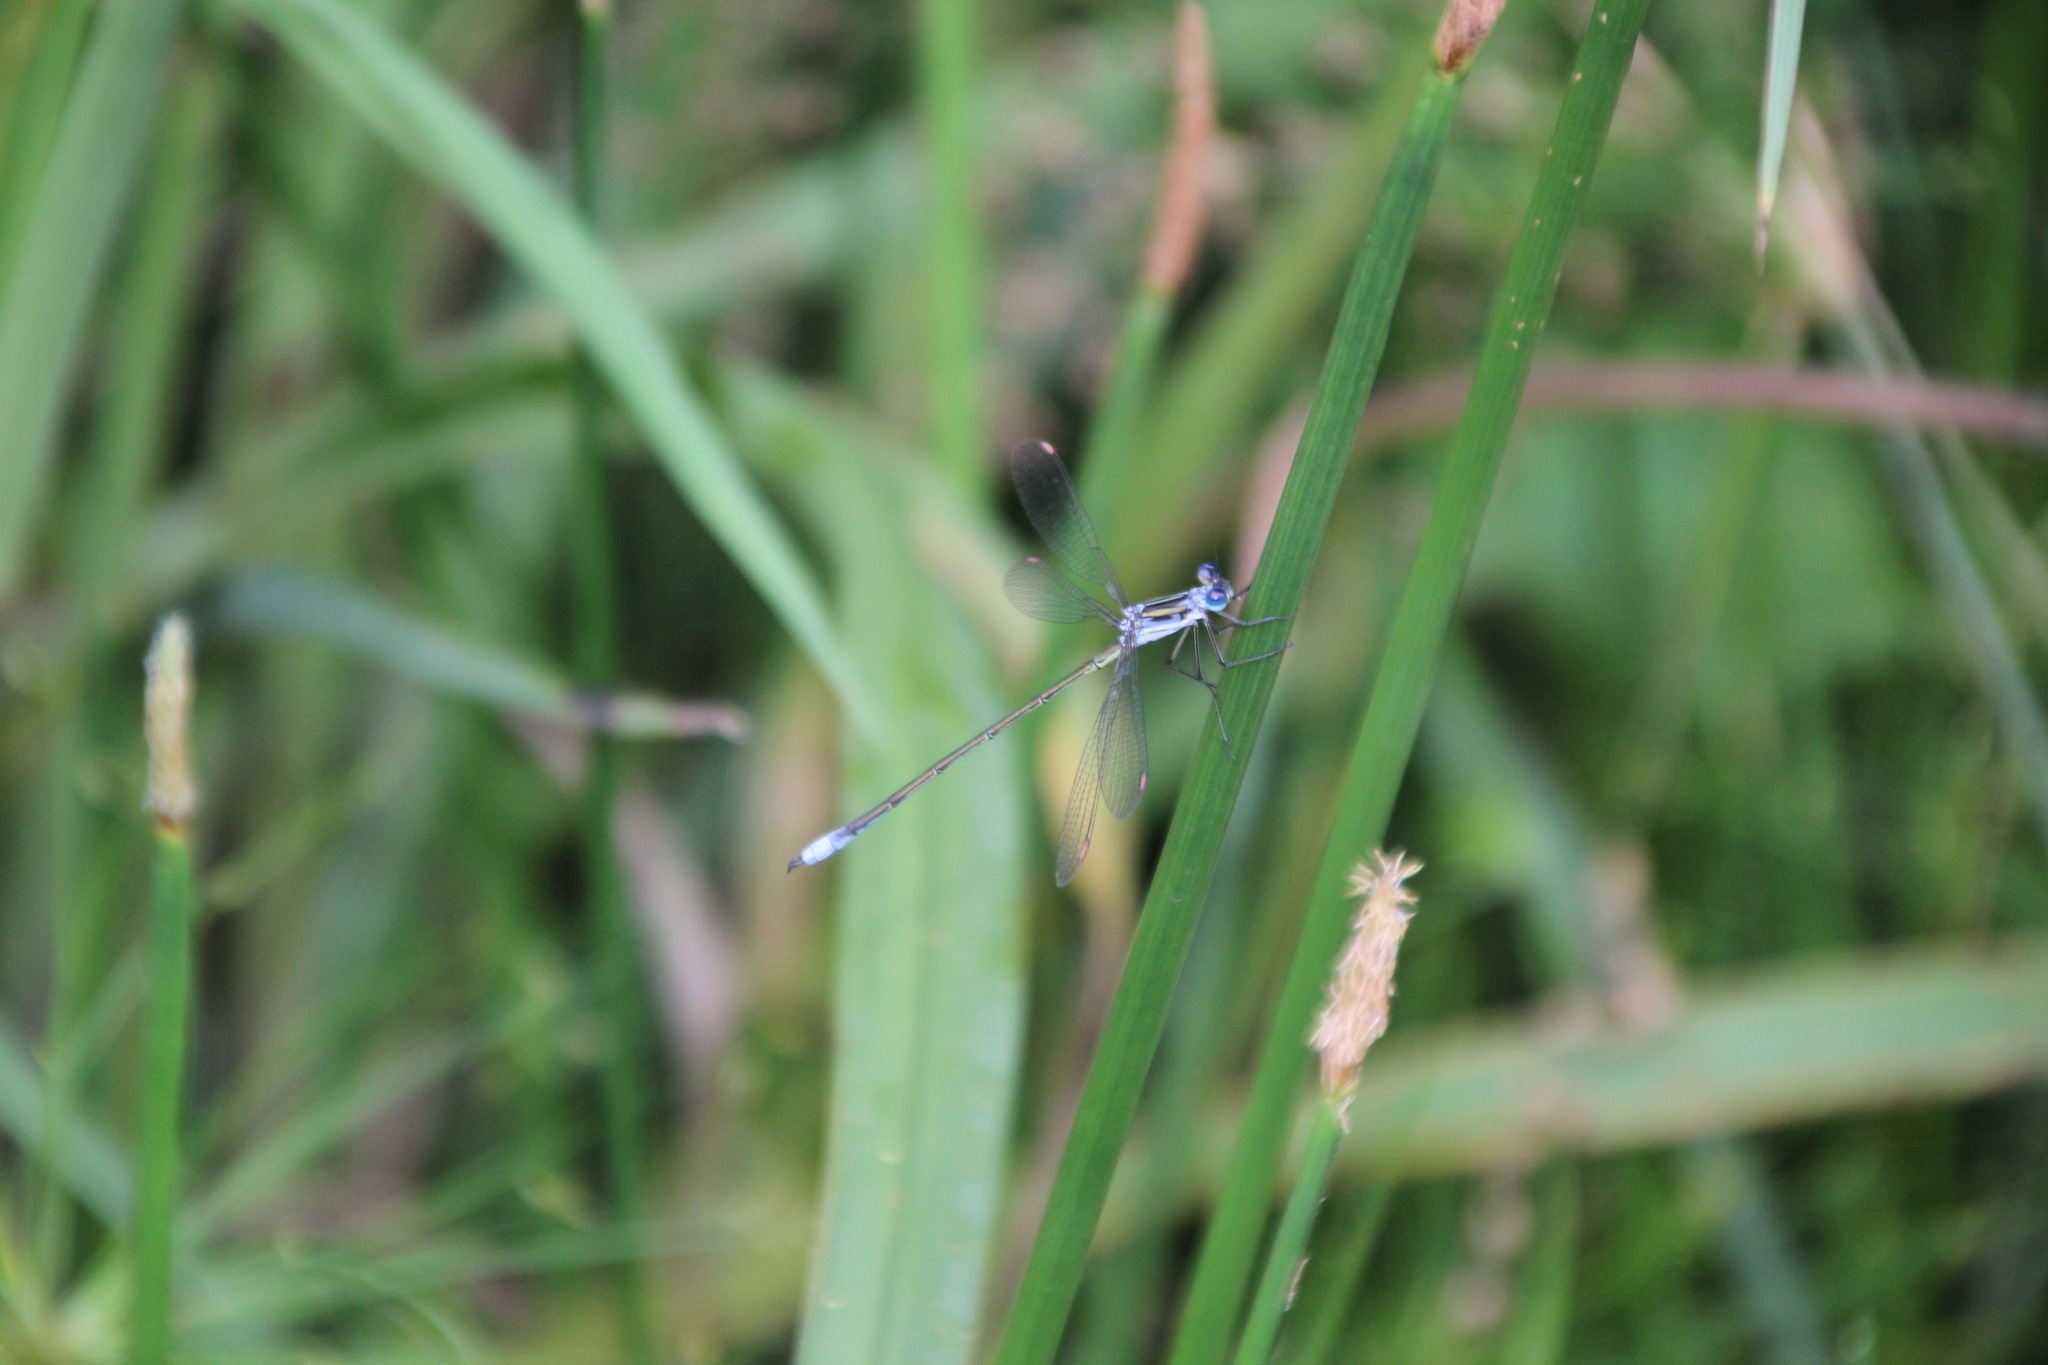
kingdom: Animalia
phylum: Arthropoda
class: Insecta
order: Odonata
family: Lestidae
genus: Lestes
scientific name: Lestes plagiatus
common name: Highland spreadwing
